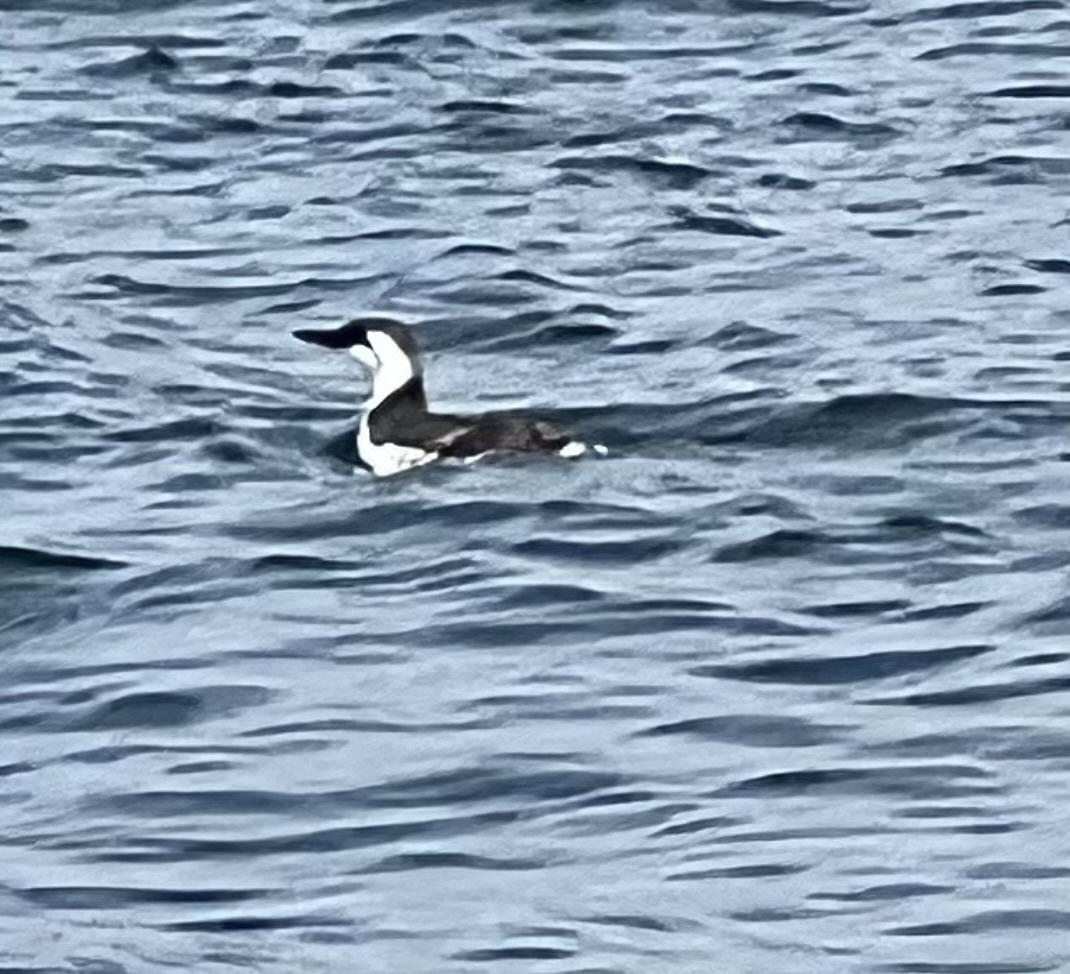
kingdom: Animalia
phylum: Chordata
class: Aves
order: Charadriiformes
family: Alcidae
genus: Uria
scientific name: Uria aalge
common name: Common murre
